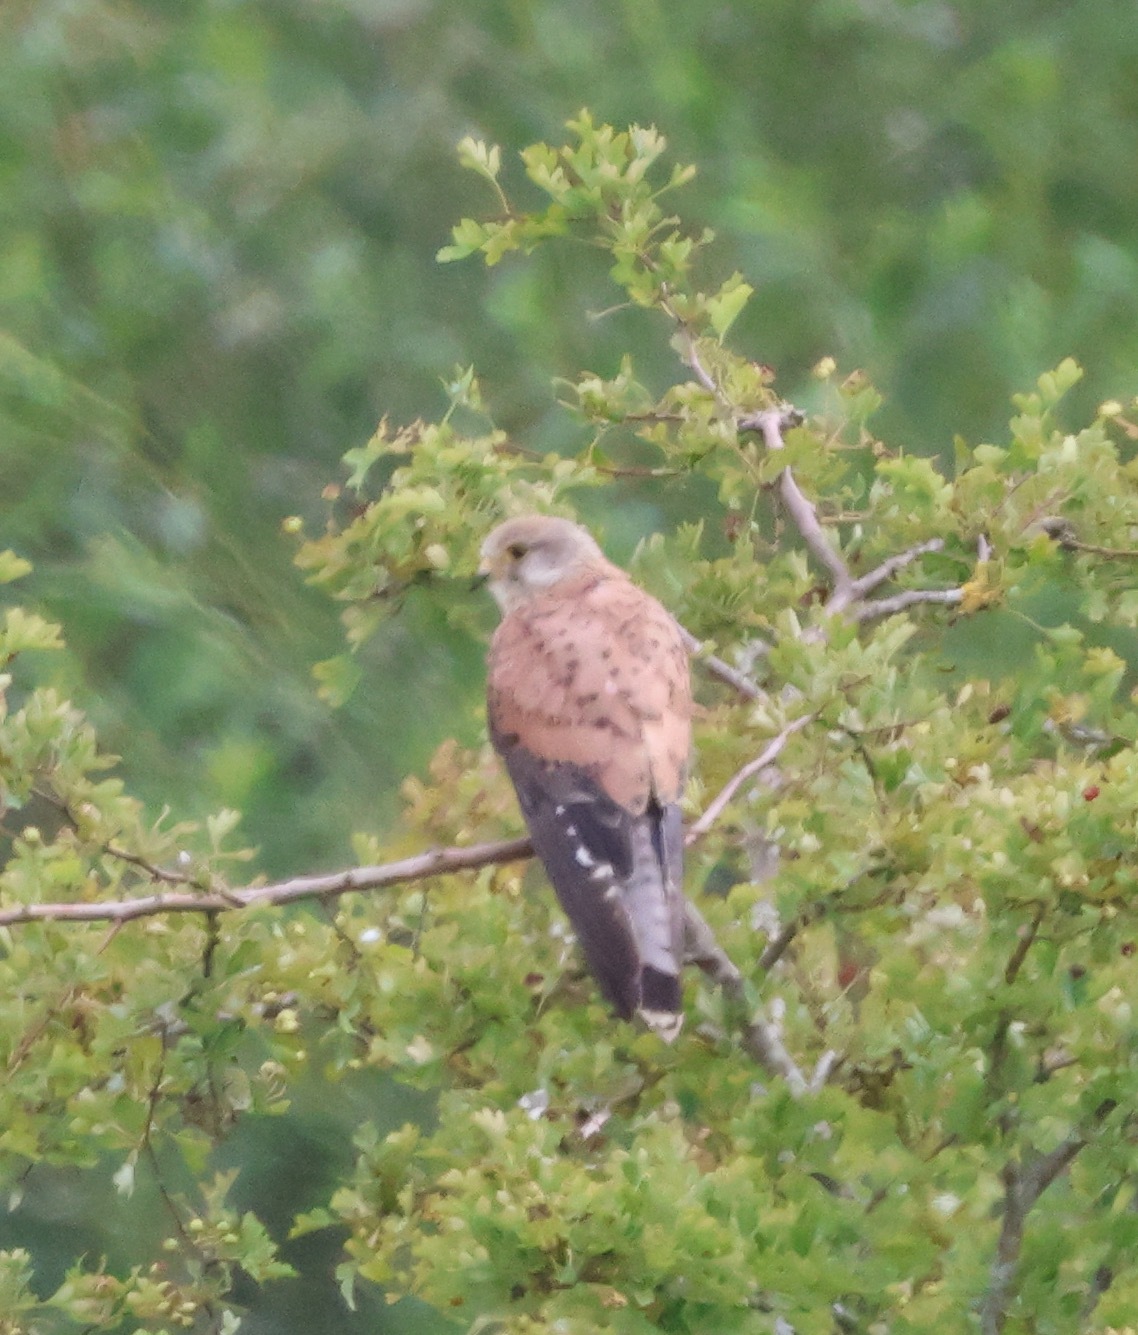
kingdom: Animalia
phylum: Chordata
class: Aves
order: Falconiformes
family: Falconidae
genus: Falco
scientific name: Falco tinnunculus
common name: Common kestrel
